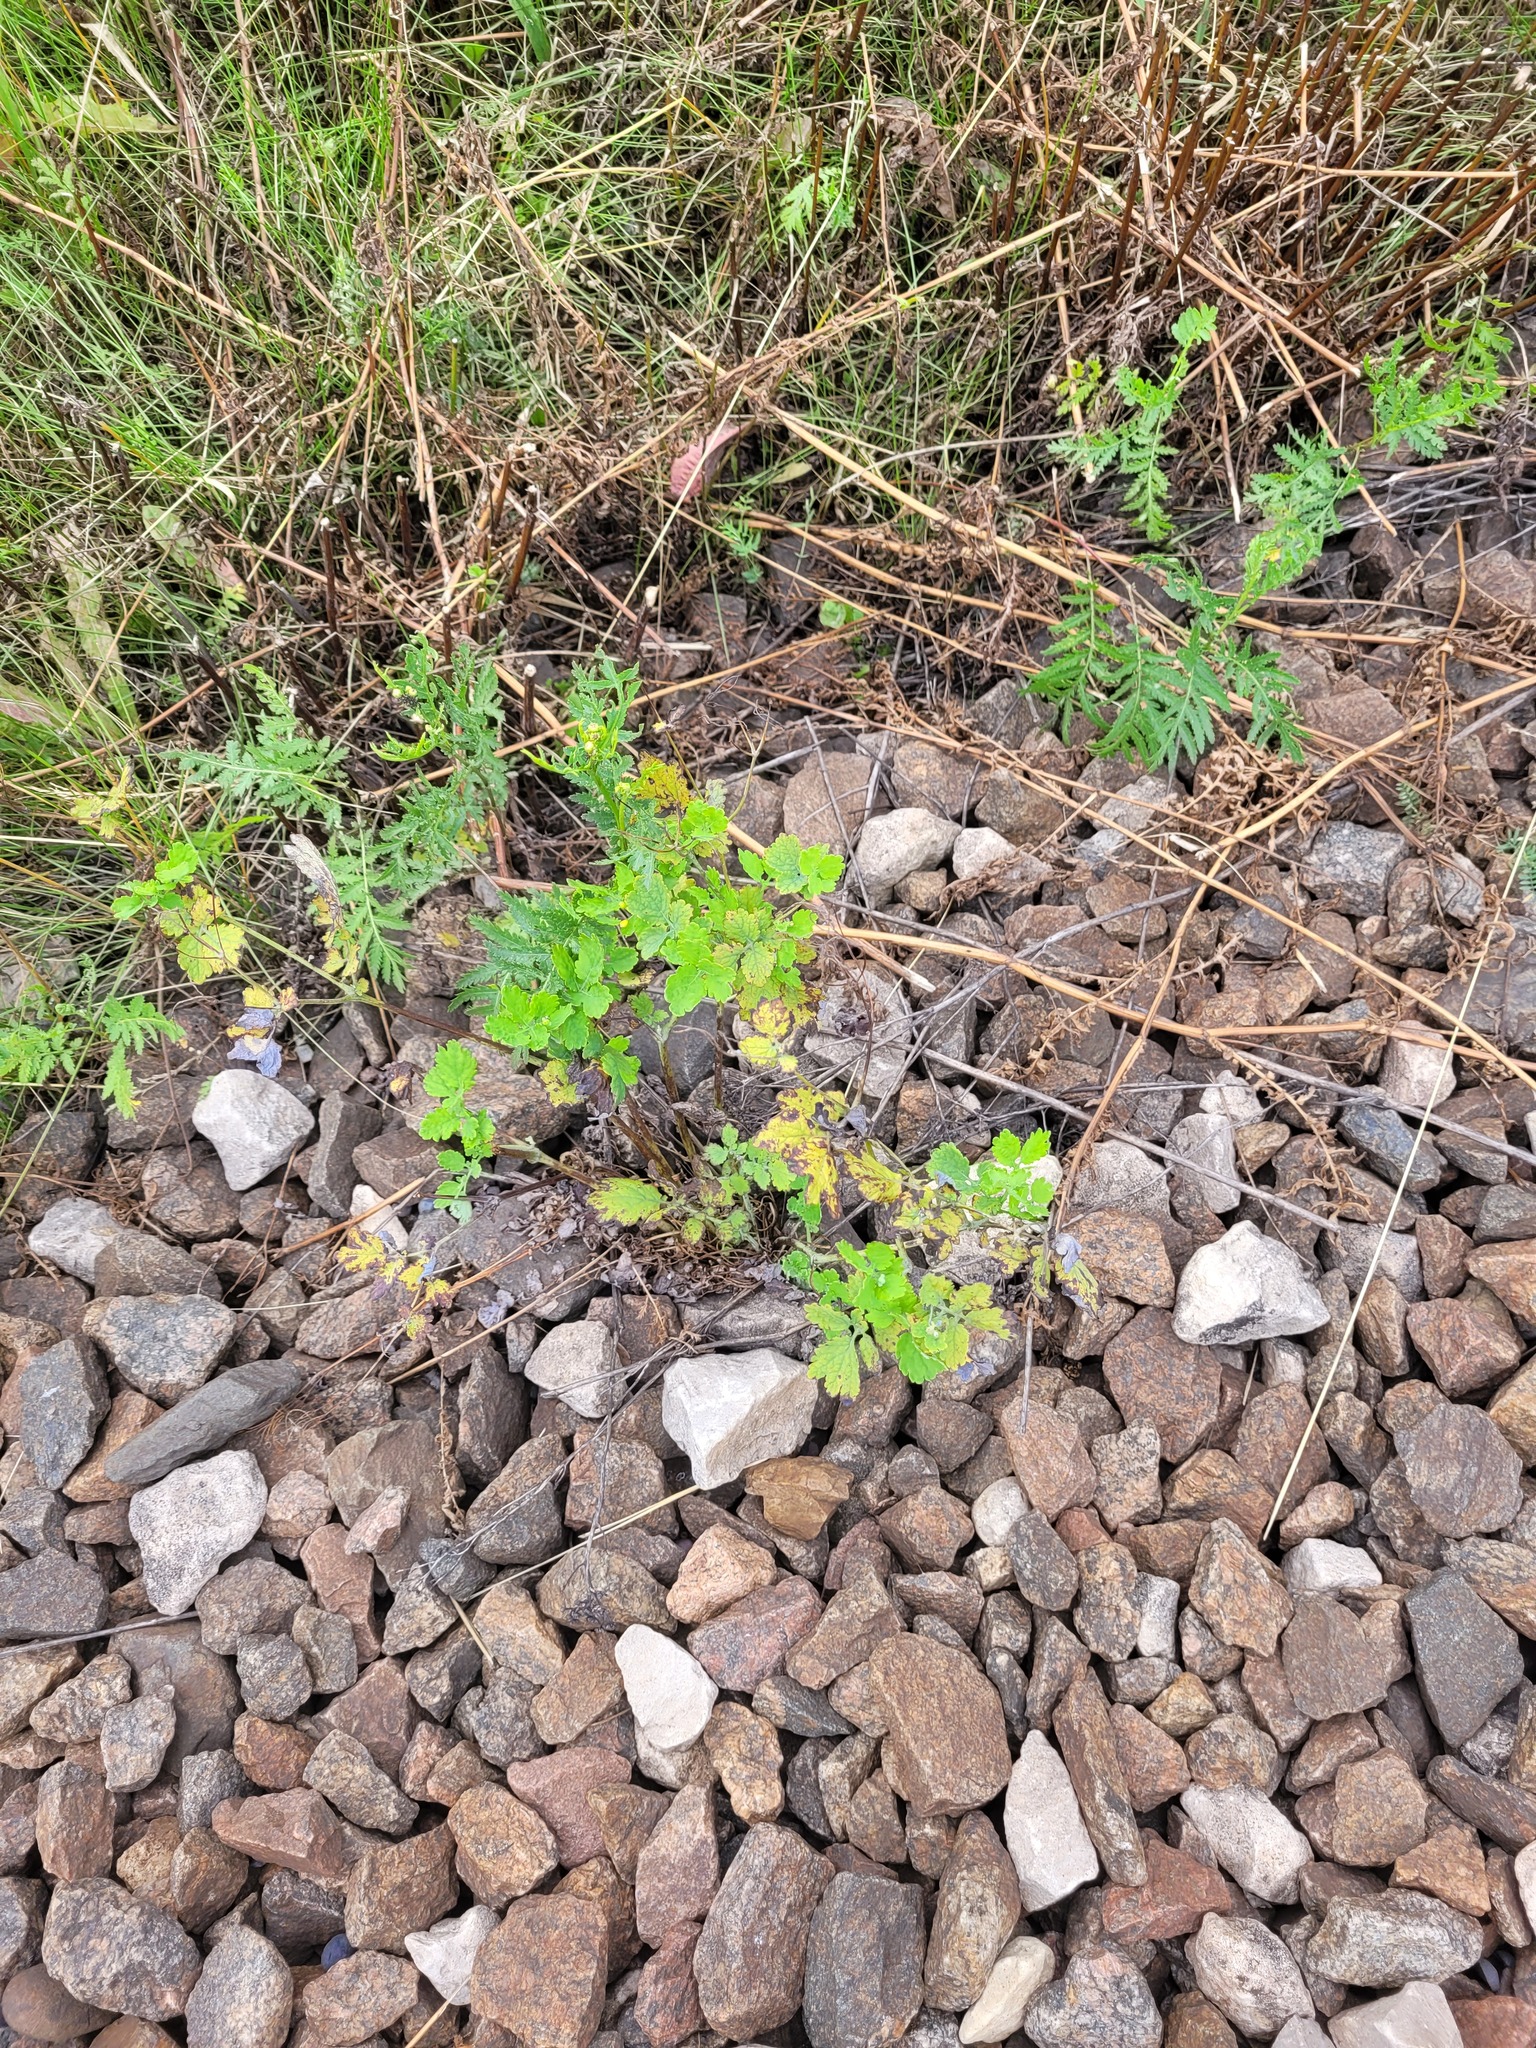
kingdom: Plantae
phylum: Tracheophyta
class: Magnoliopsida
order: Ranunculales
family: Papaveraceae
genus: Chelidonium
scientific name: Chelidonium majus
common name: Greater celandine
